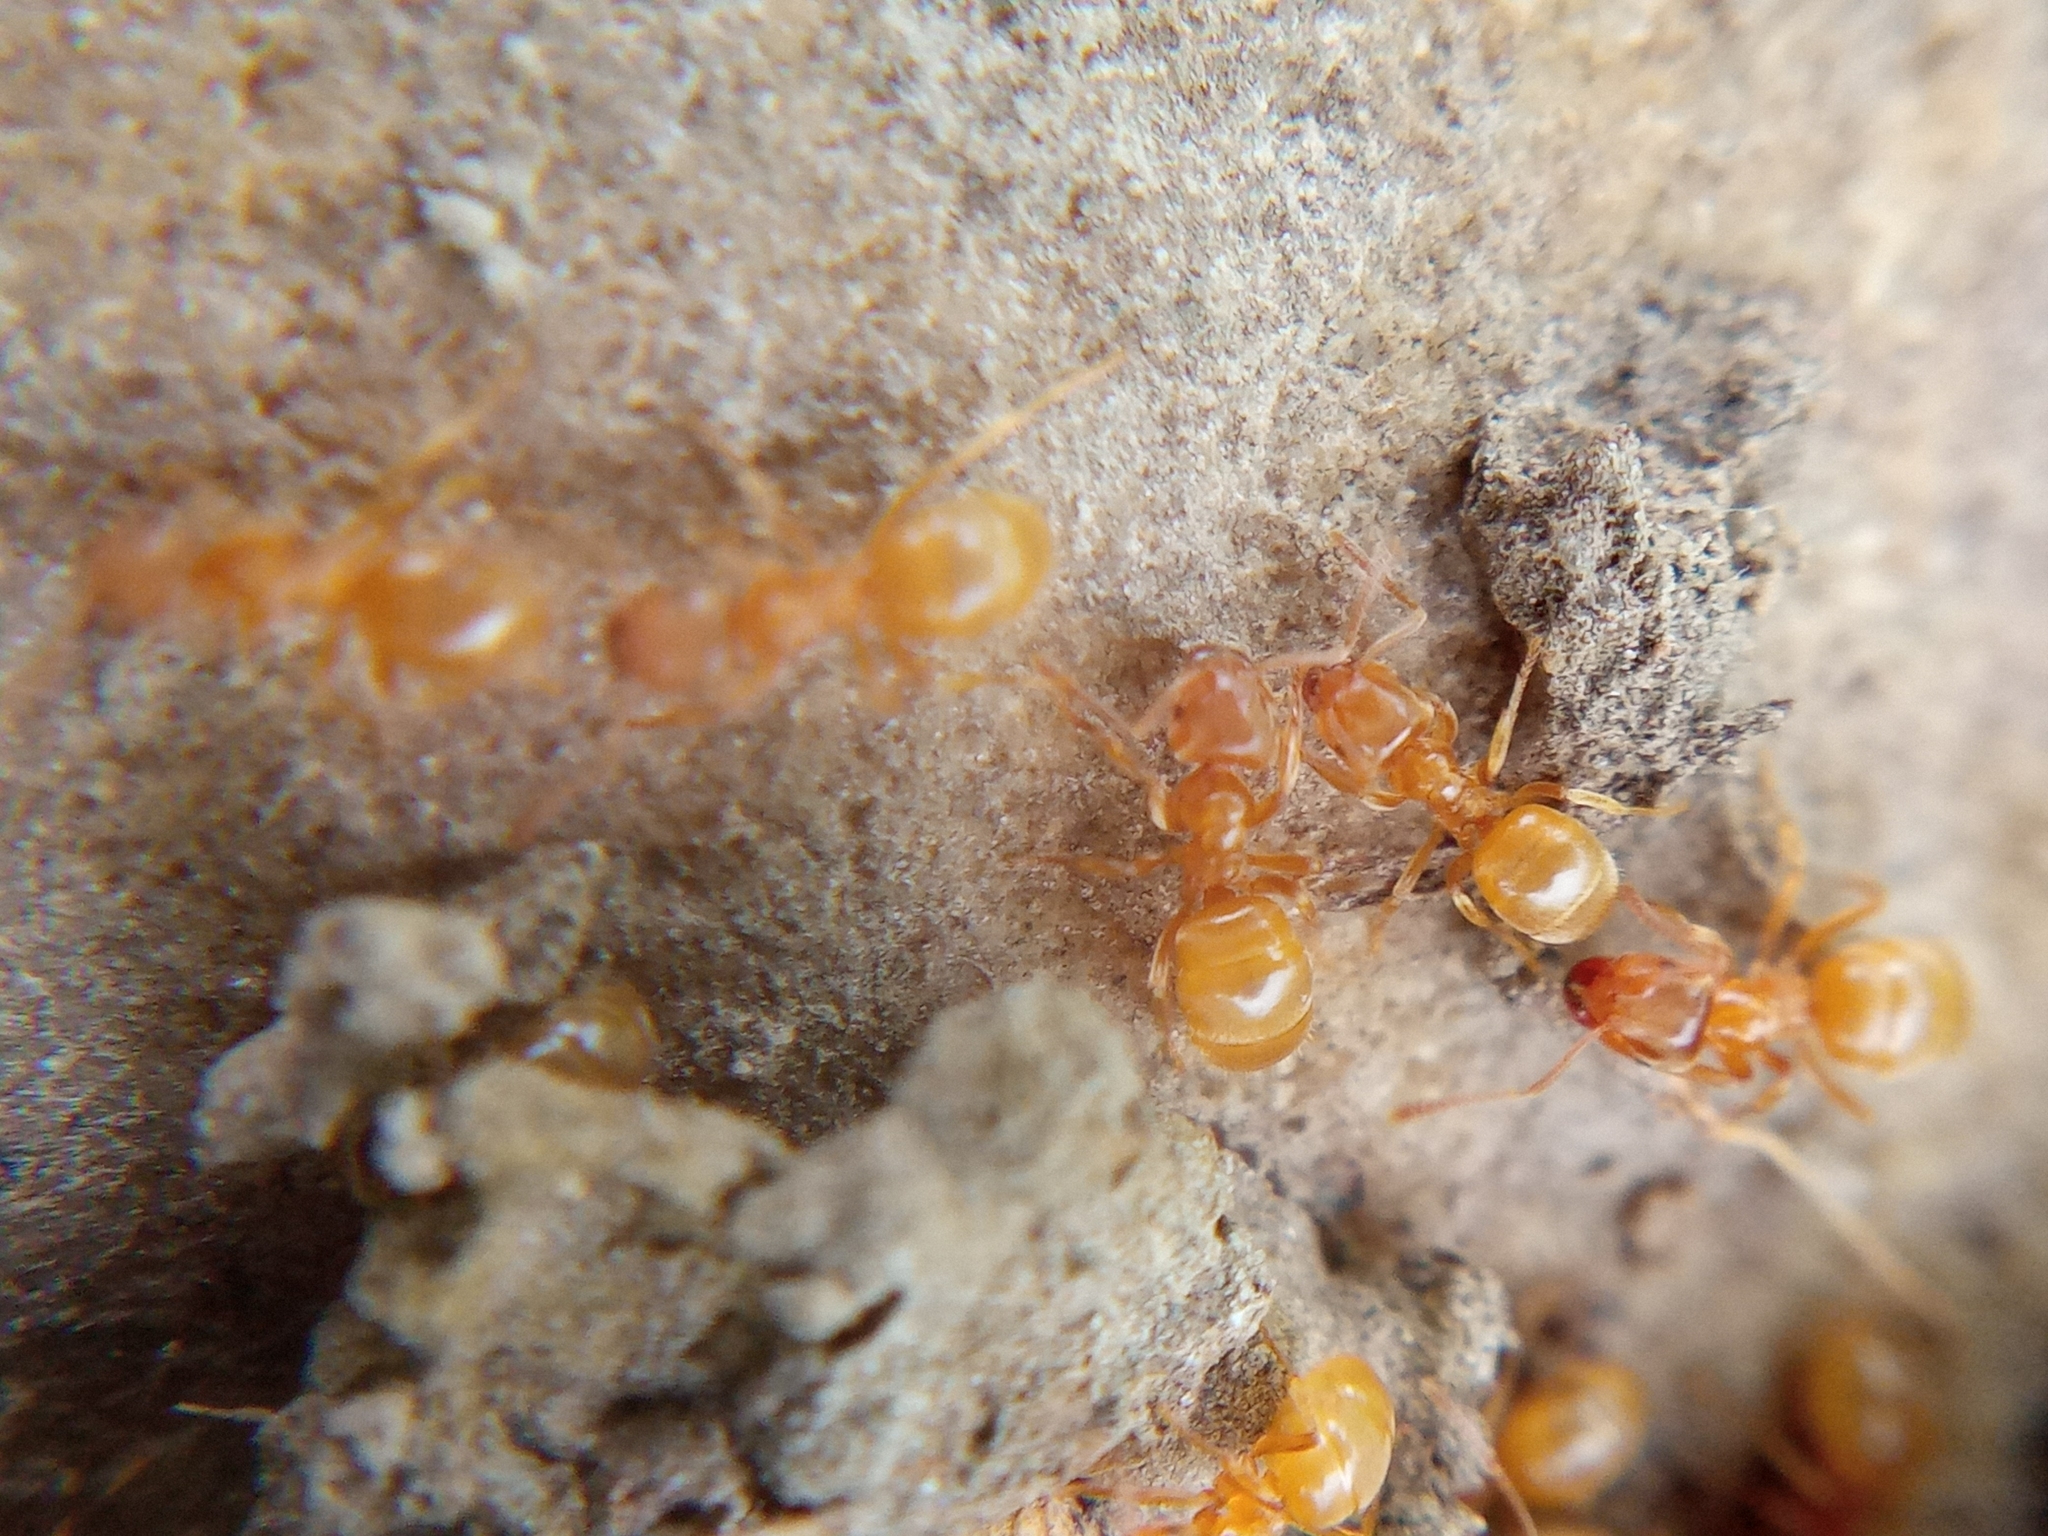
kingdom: Animalia
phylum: Arthropoda
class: Insecta
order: Hymenoptera
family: Formicidae
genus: Lasius
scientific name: Lasius flavus
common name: Blond field ant
